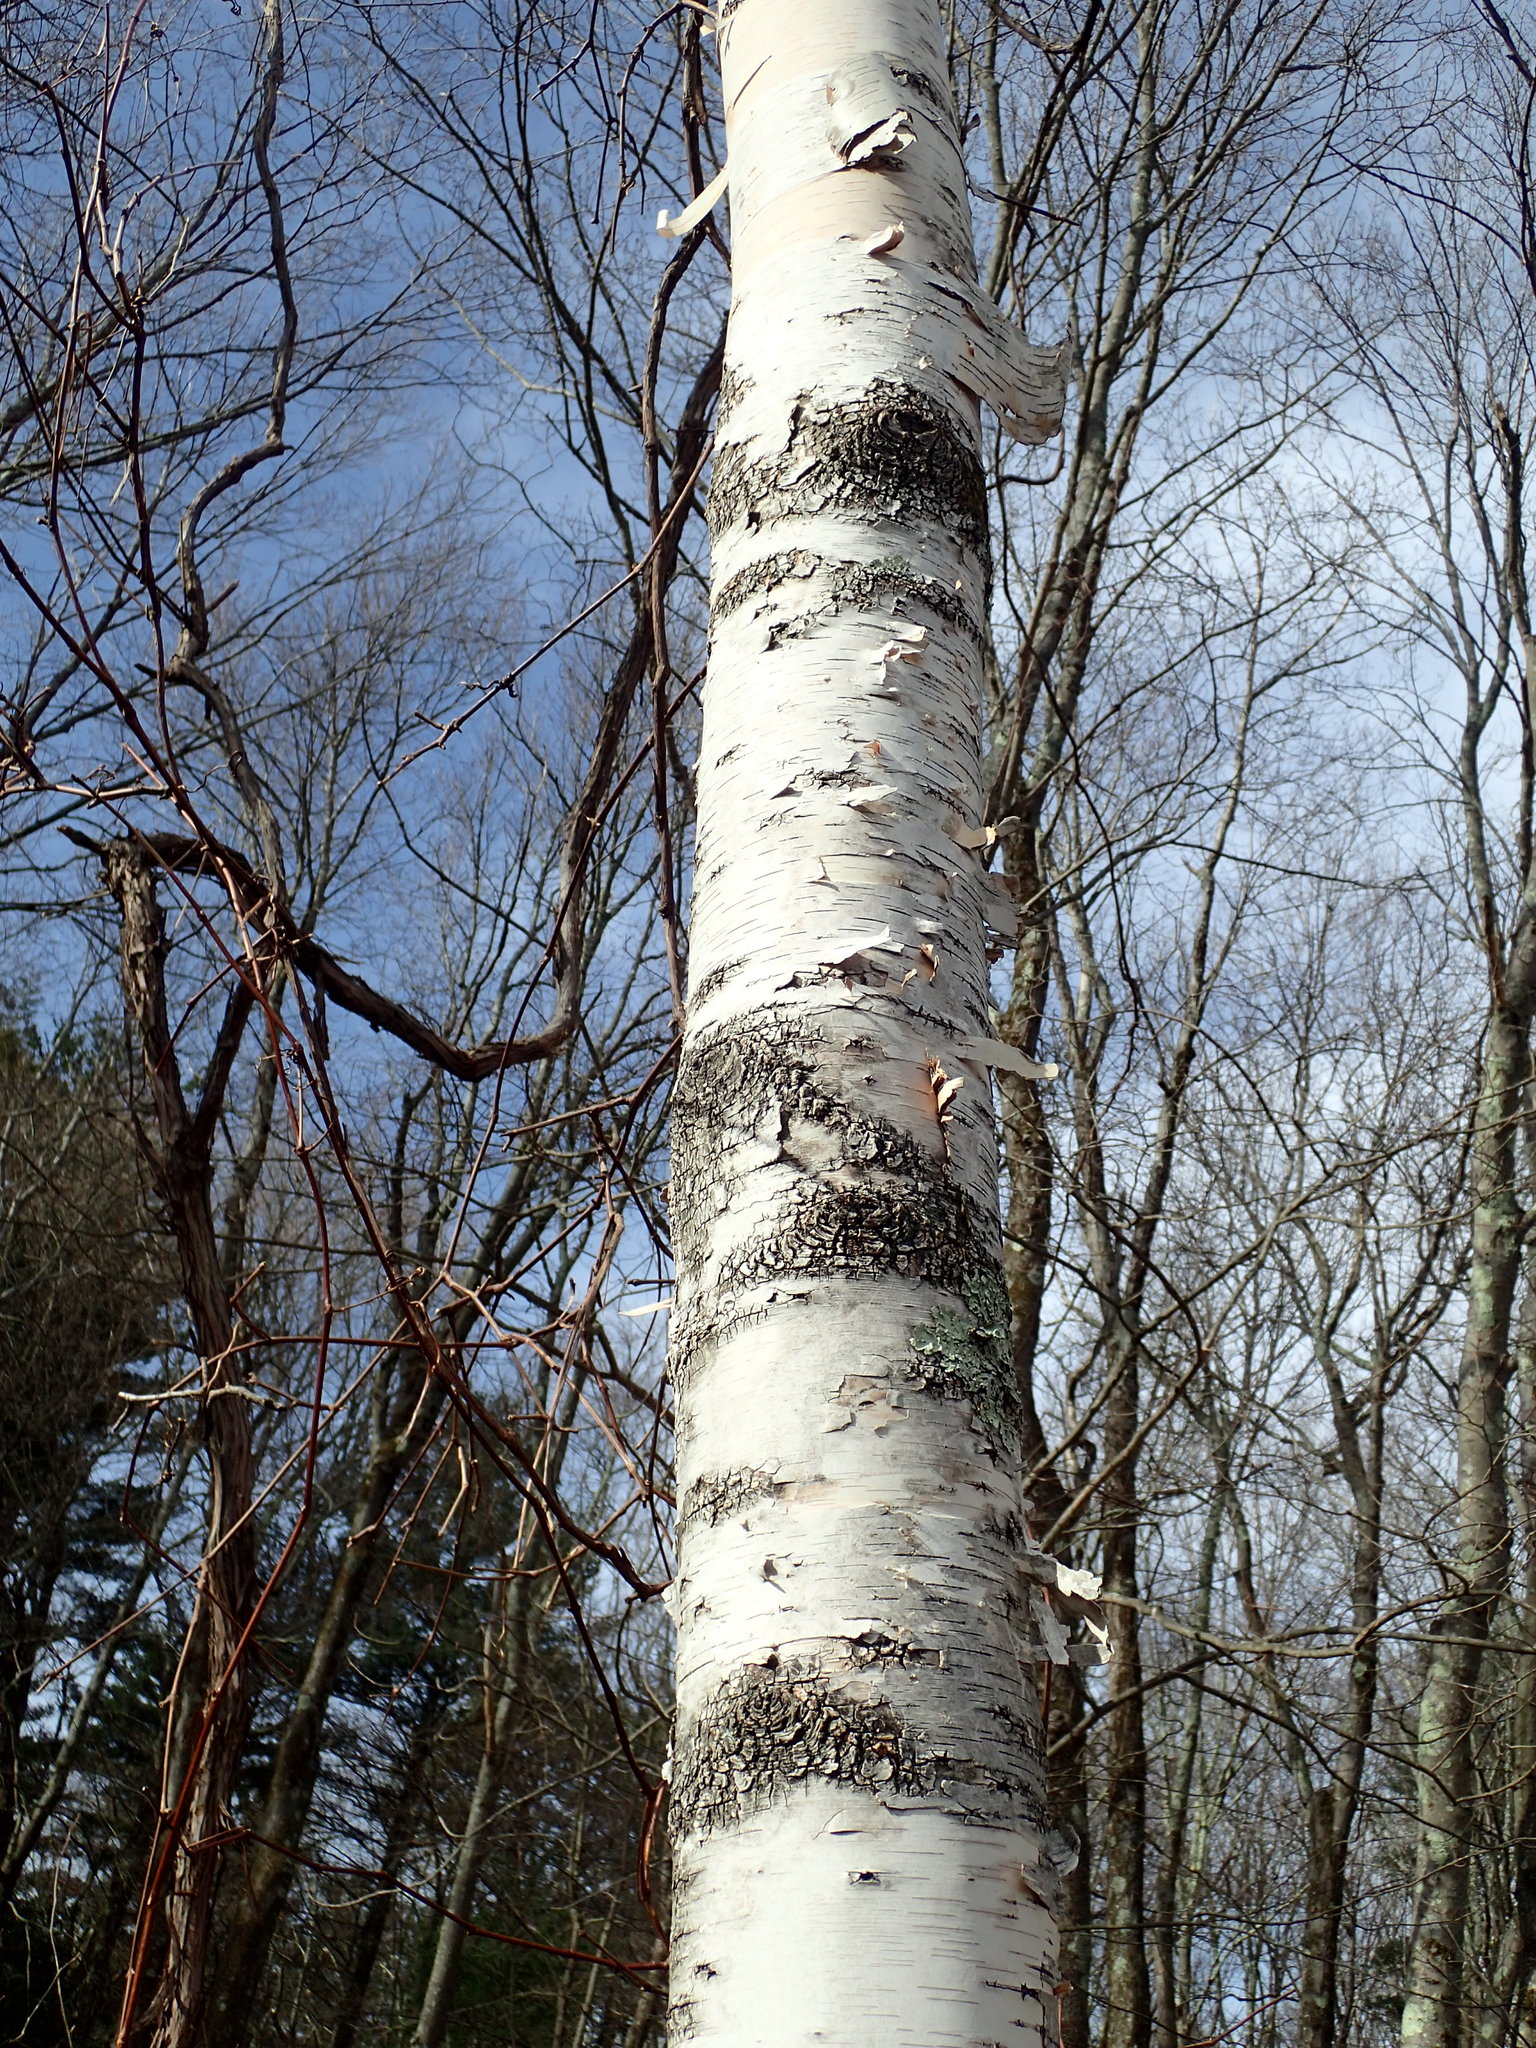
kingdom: Plantae
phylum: Tracheophyta
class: Magnoliopsida
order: Fagales
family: Betulaceae
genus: Betula
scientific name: Betula papyrifera
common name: Paper birch
